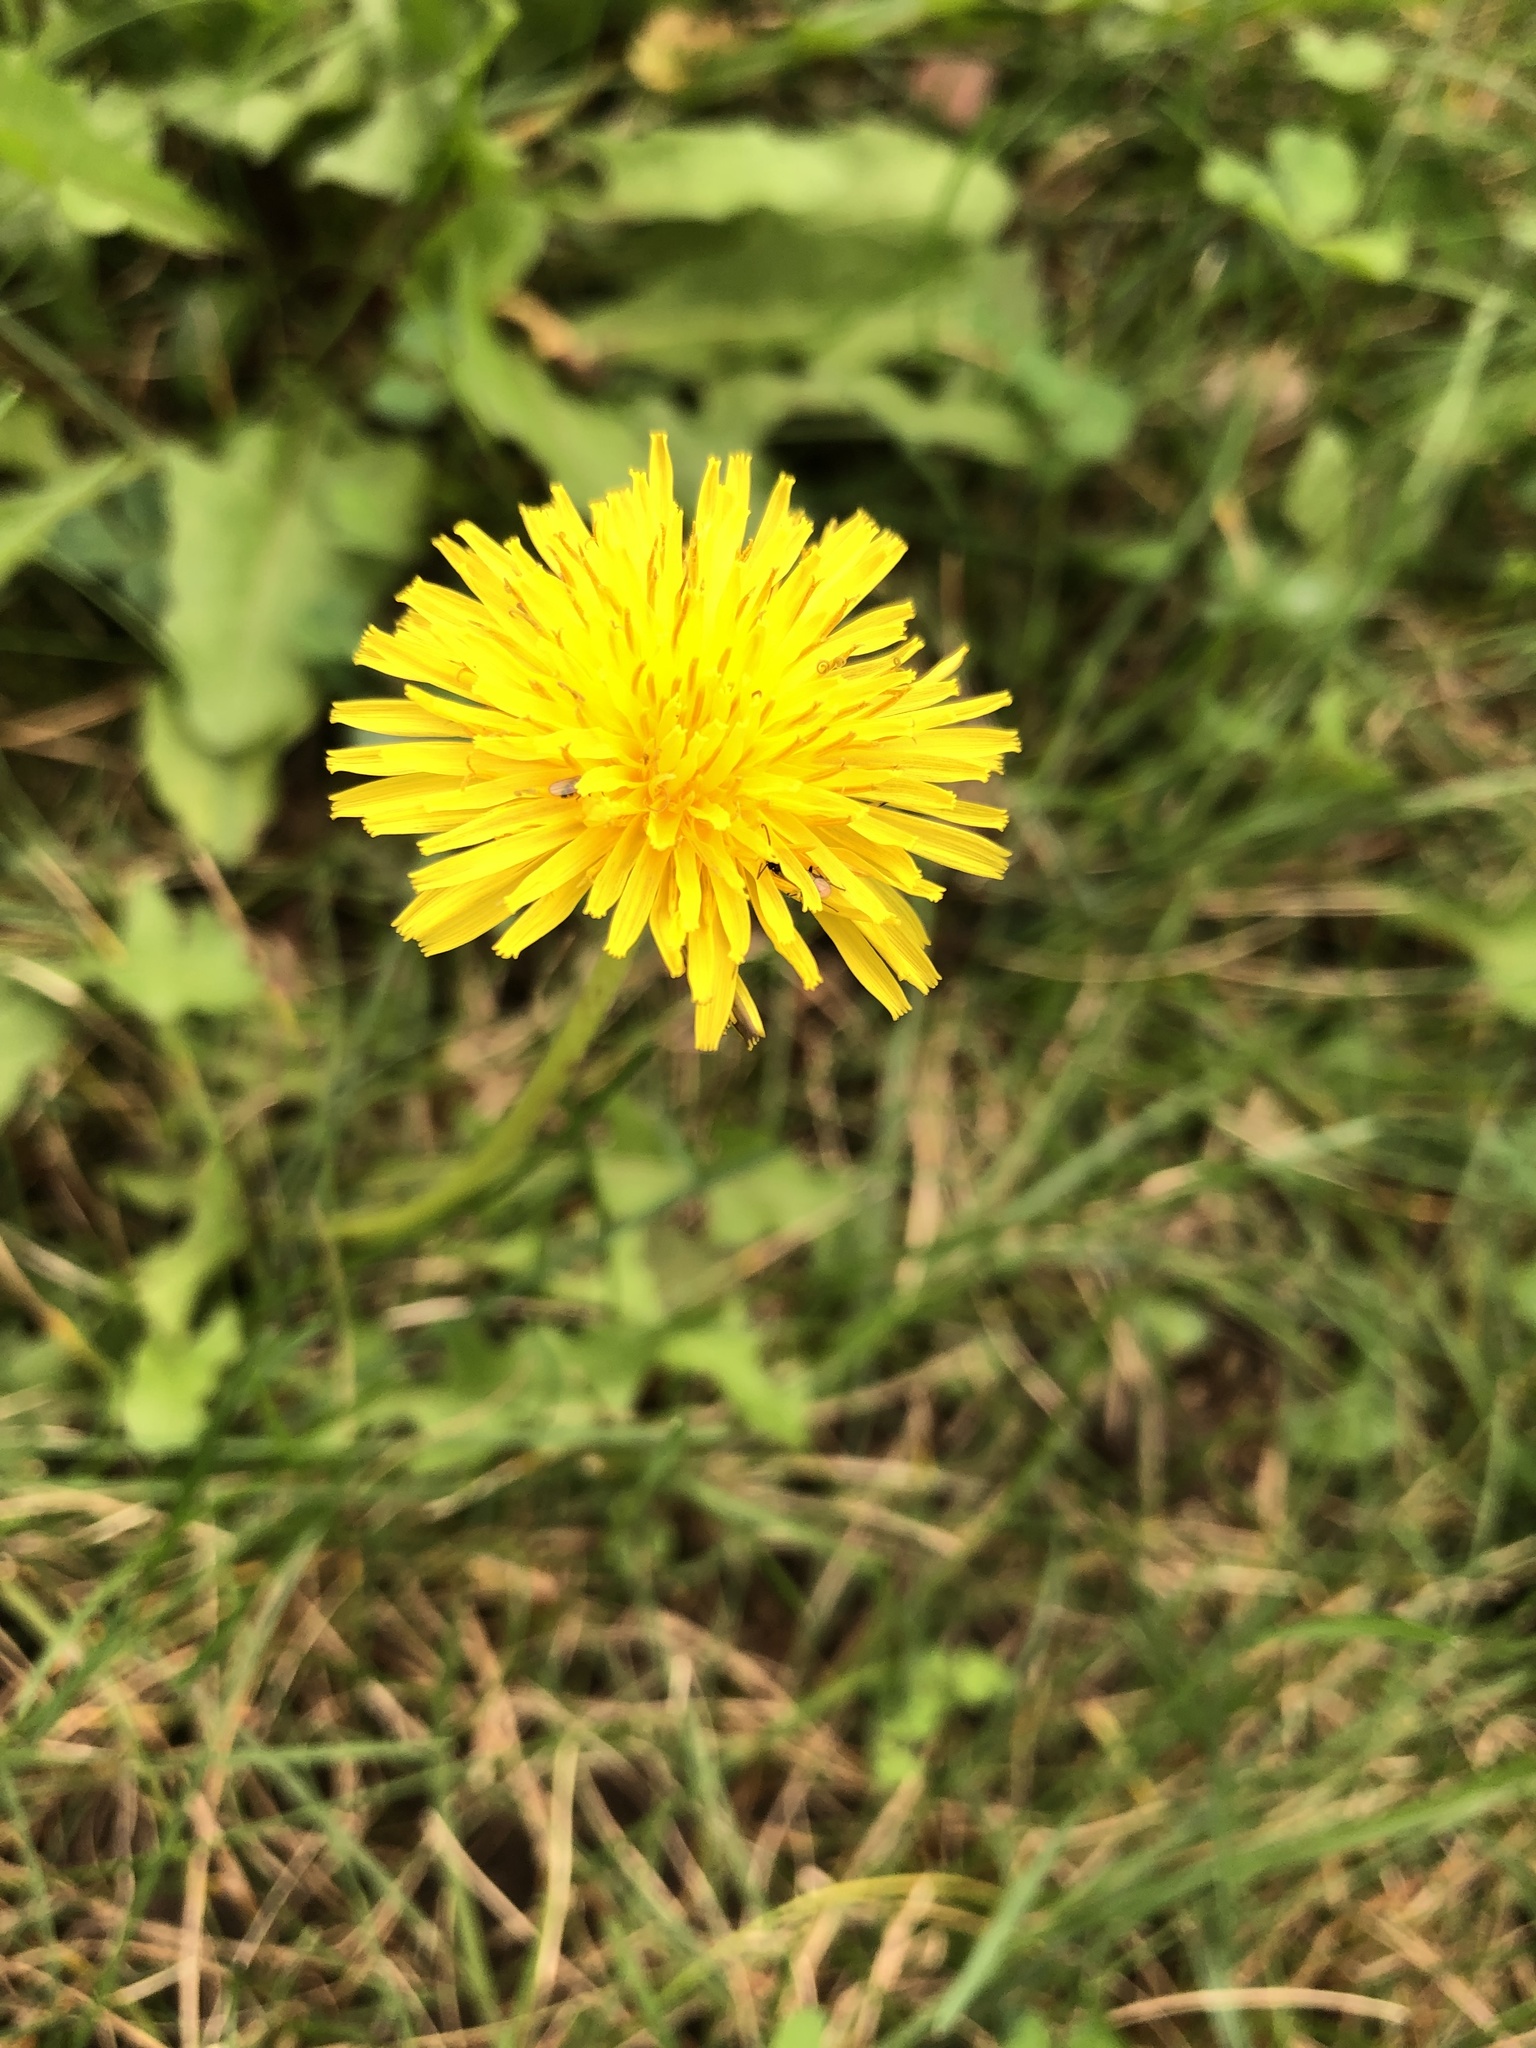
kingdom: Plantae
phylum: Tracheophyta
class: Magnoliopsida
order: Asterales
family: Asteraceae
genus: Taraxacum
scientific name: Taraxacum officinale
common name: Common dandelion
